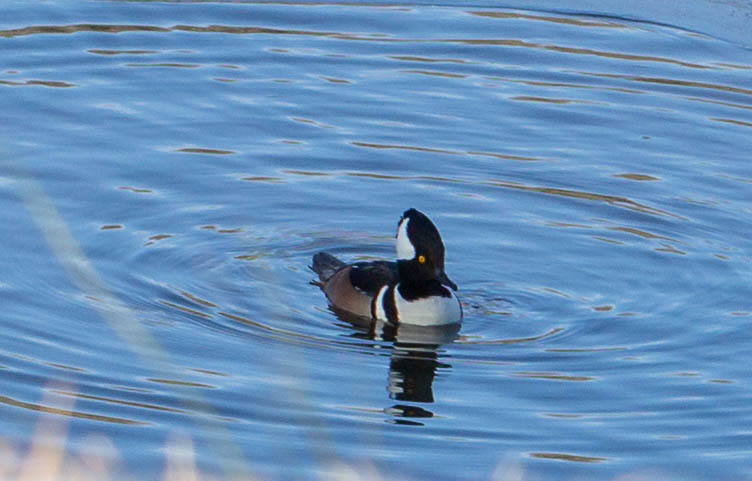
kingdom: Animalia
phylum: Chordata
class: Aves
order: Anseriformes
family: Anatidae
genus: Lophodytes
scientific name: Lophodytes cucullatus
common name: Hooded merganser
